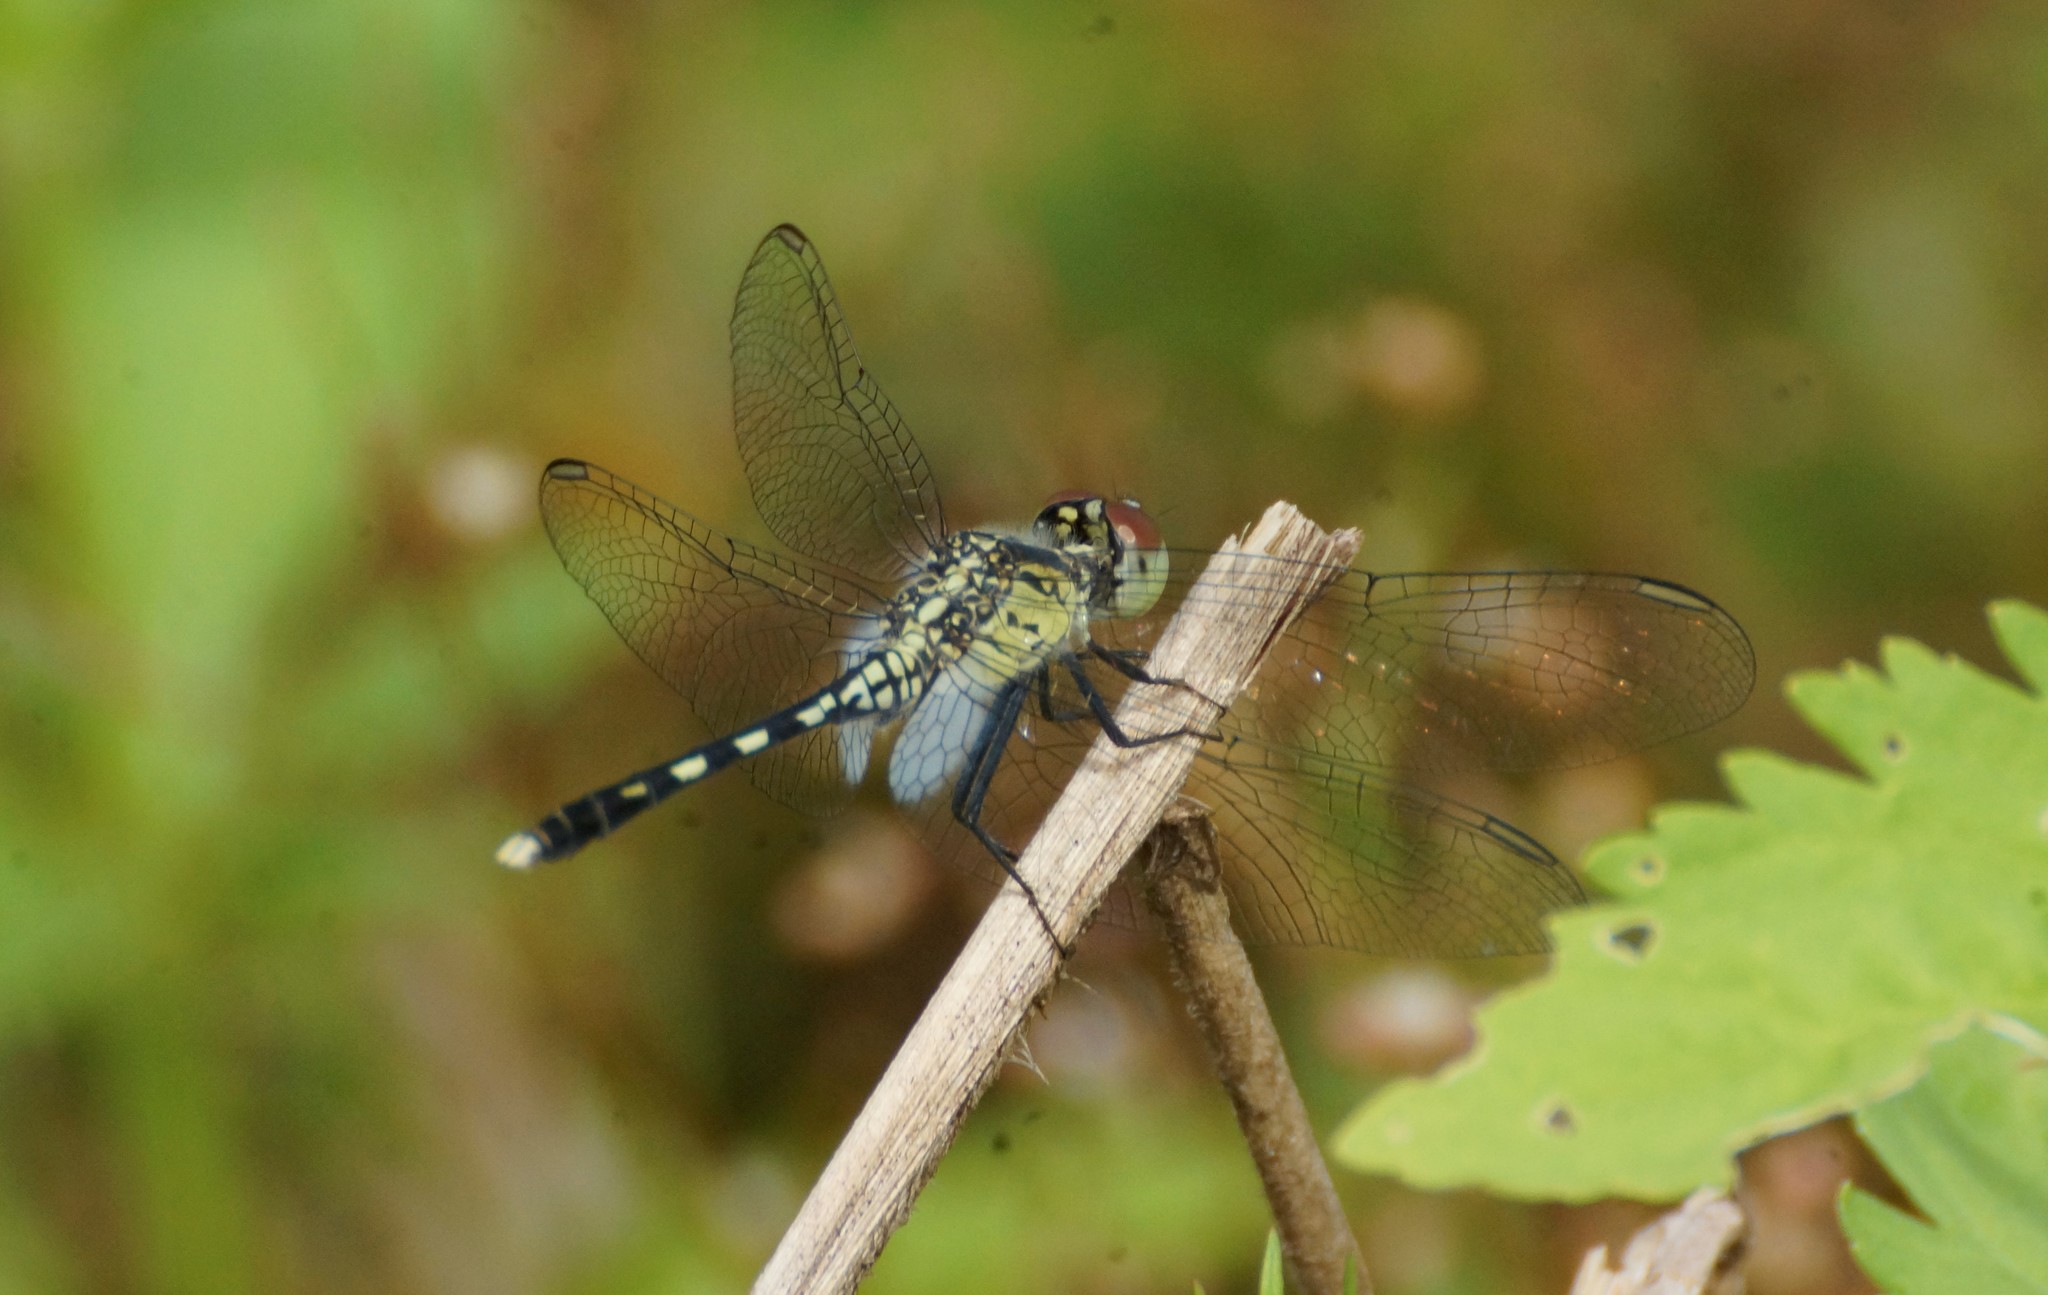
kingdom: Animalia
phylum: Arthropoda
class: Insecta
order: Odonata
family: Libellulidae
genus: Diplacodes
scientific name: Diplacodes trivialis
